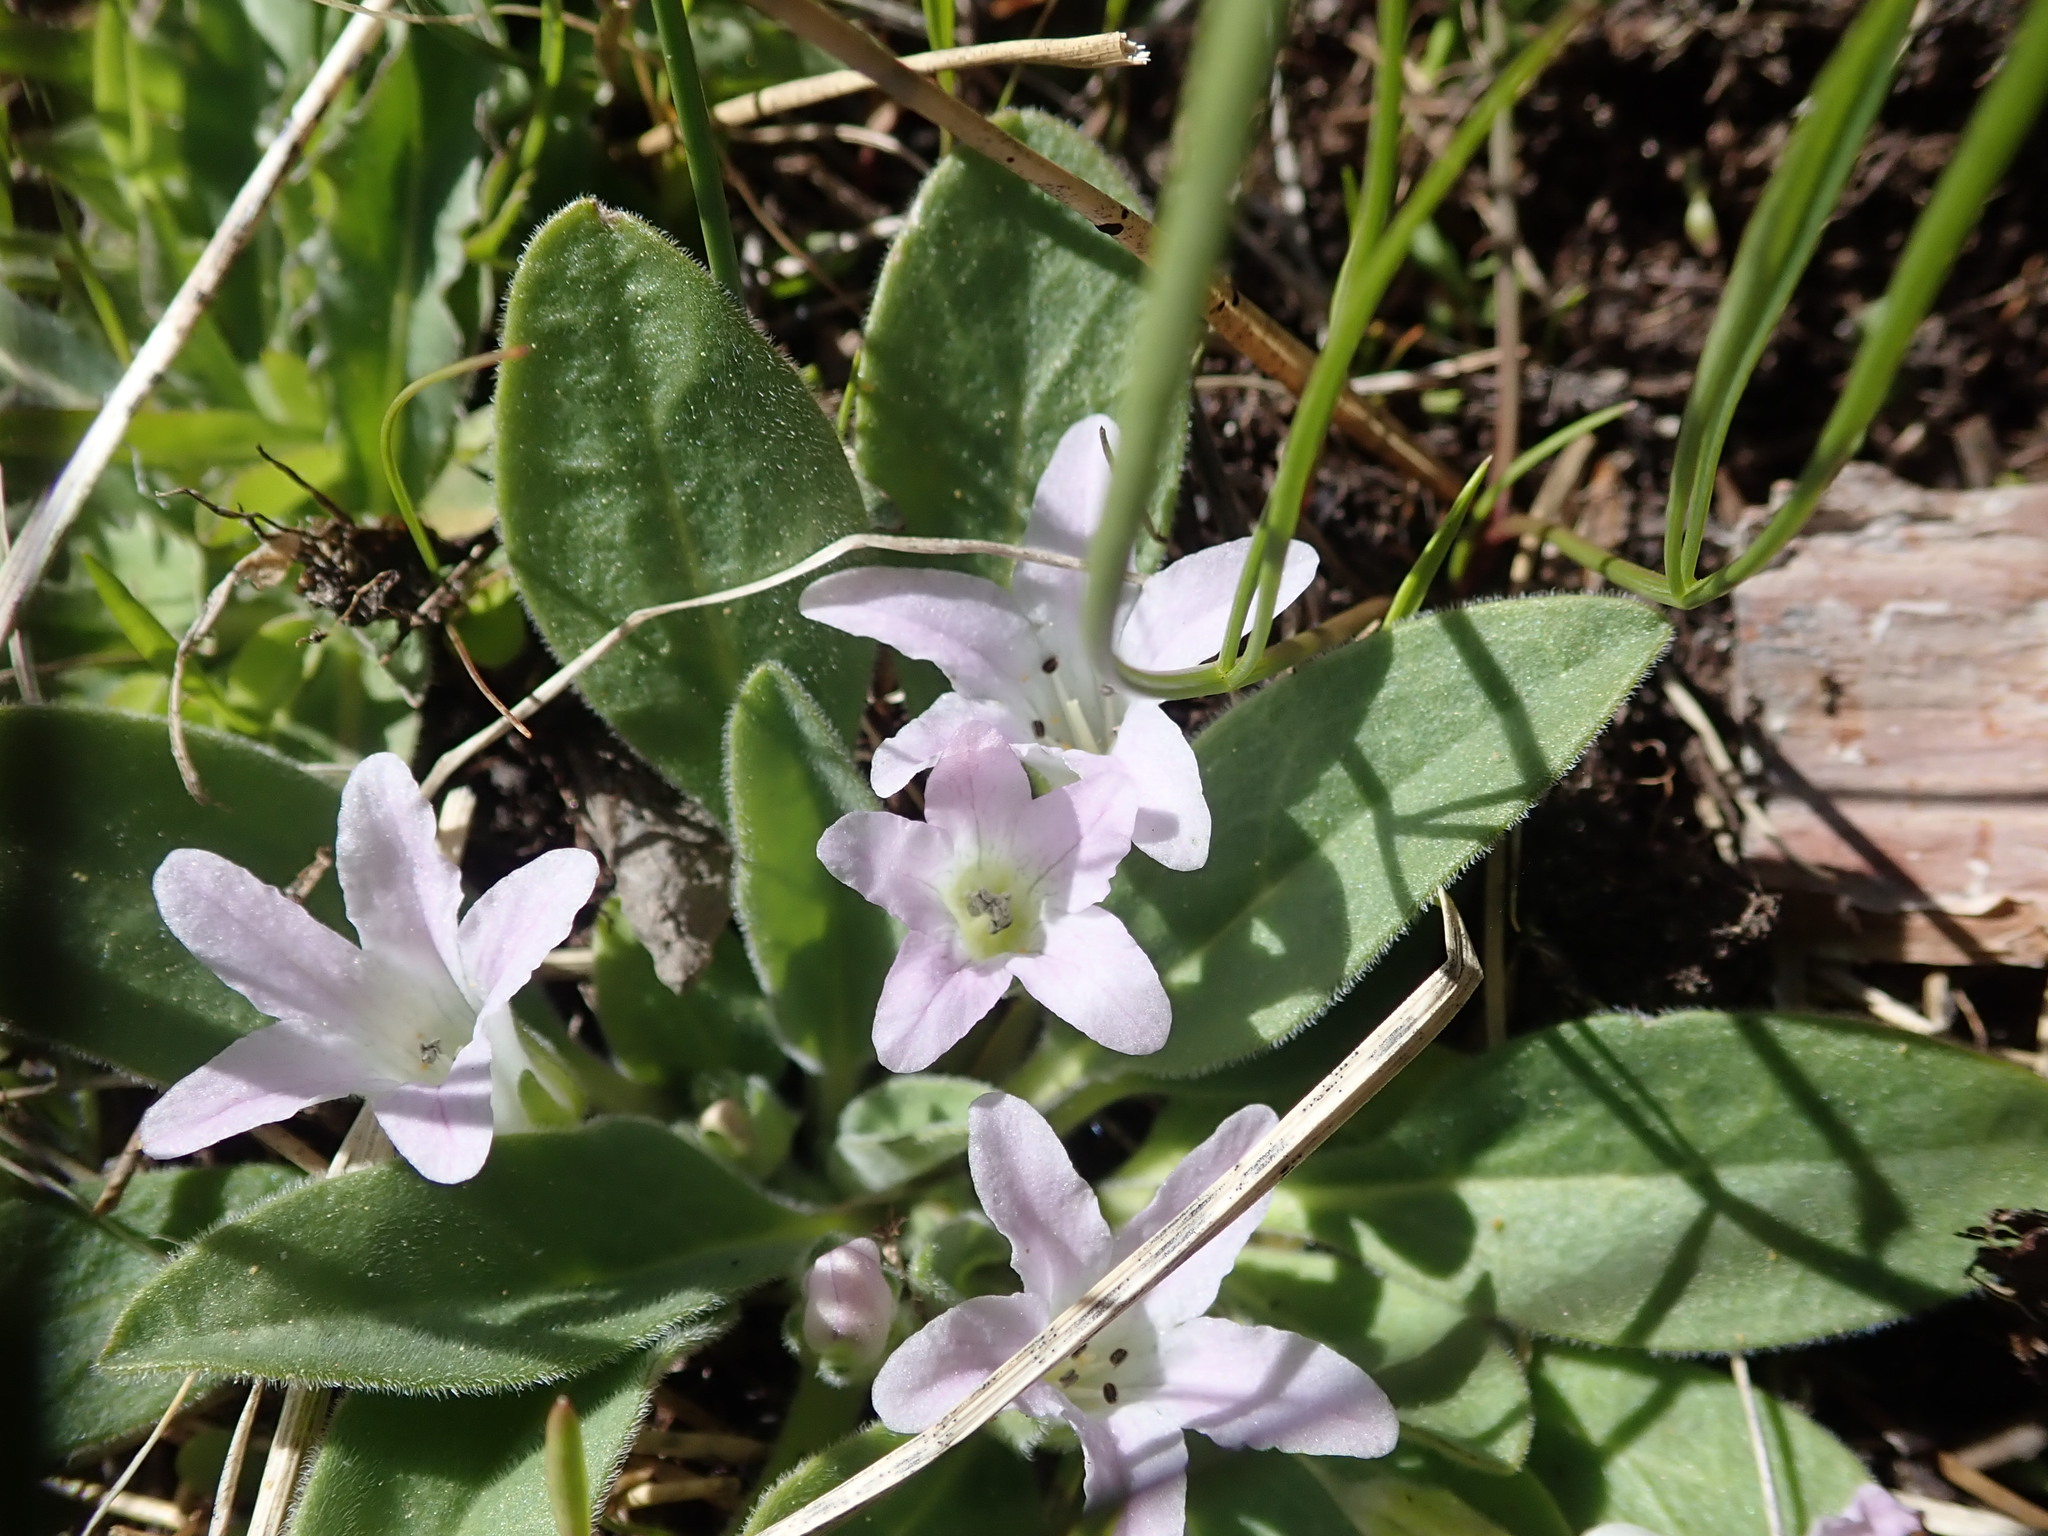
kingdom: Plantae
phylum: Tracheophyta
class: Magnoliopsida
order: Boraginales
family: Hydrophyllaceae
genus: Hesperochiron
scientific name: Hesperochiron californicus
